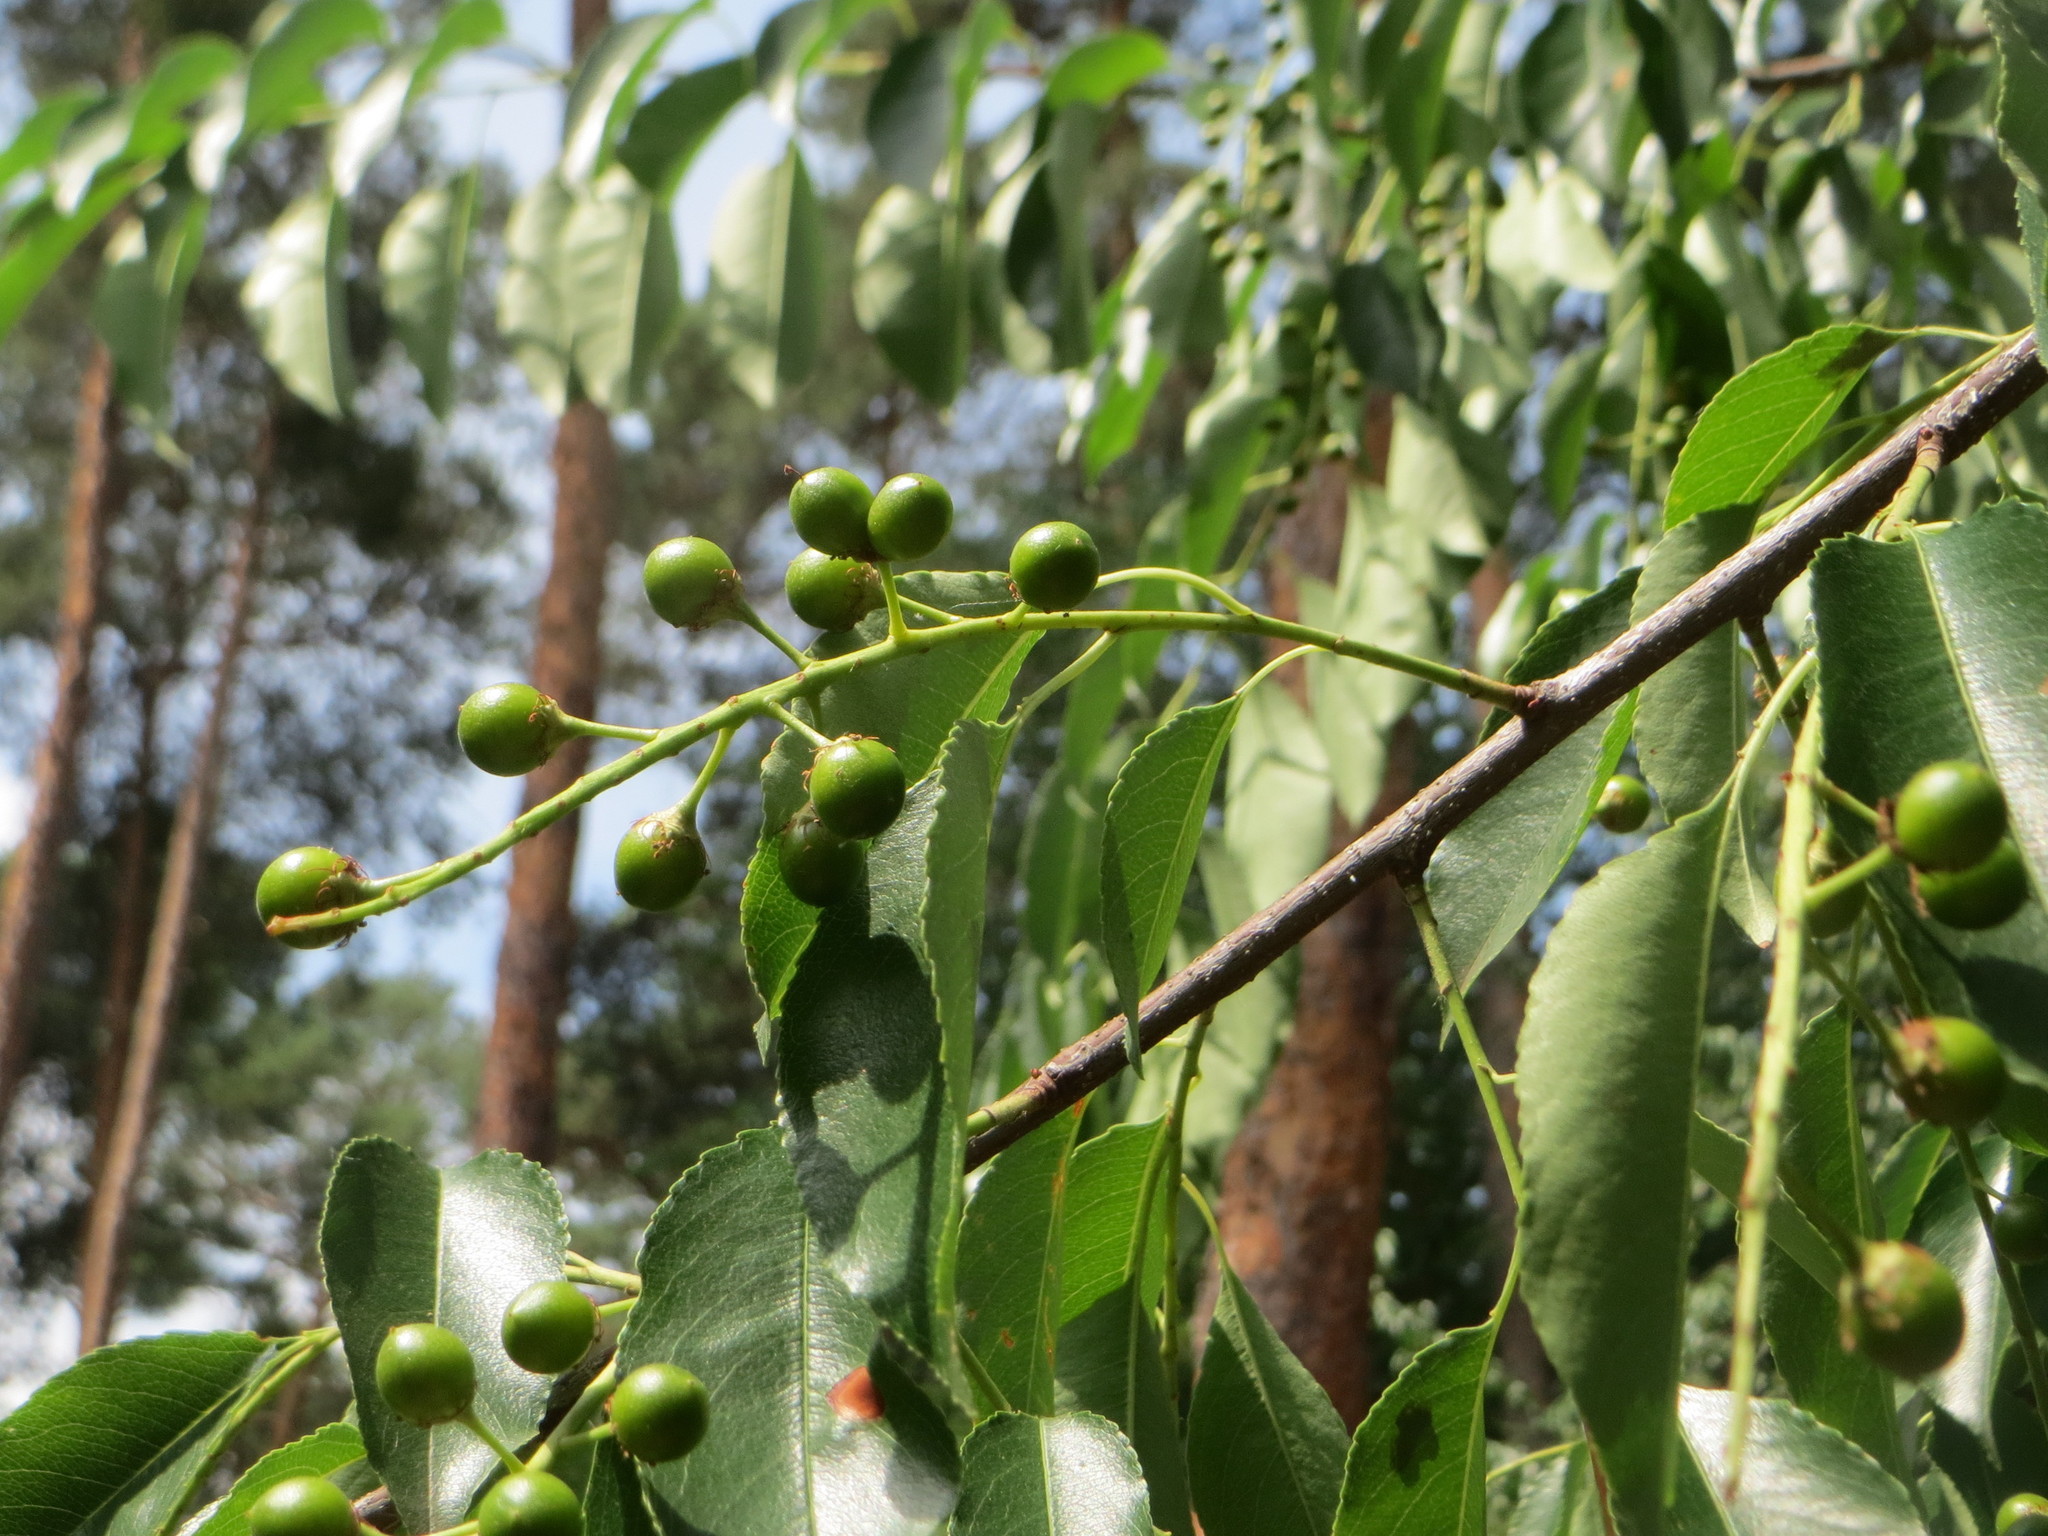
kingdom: Plantae
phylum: Tracheophyta
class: Magnoliopsida
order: Rosales
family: Rosaceae
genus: Prunus
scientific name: Prunus serotina
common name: Black cherry
